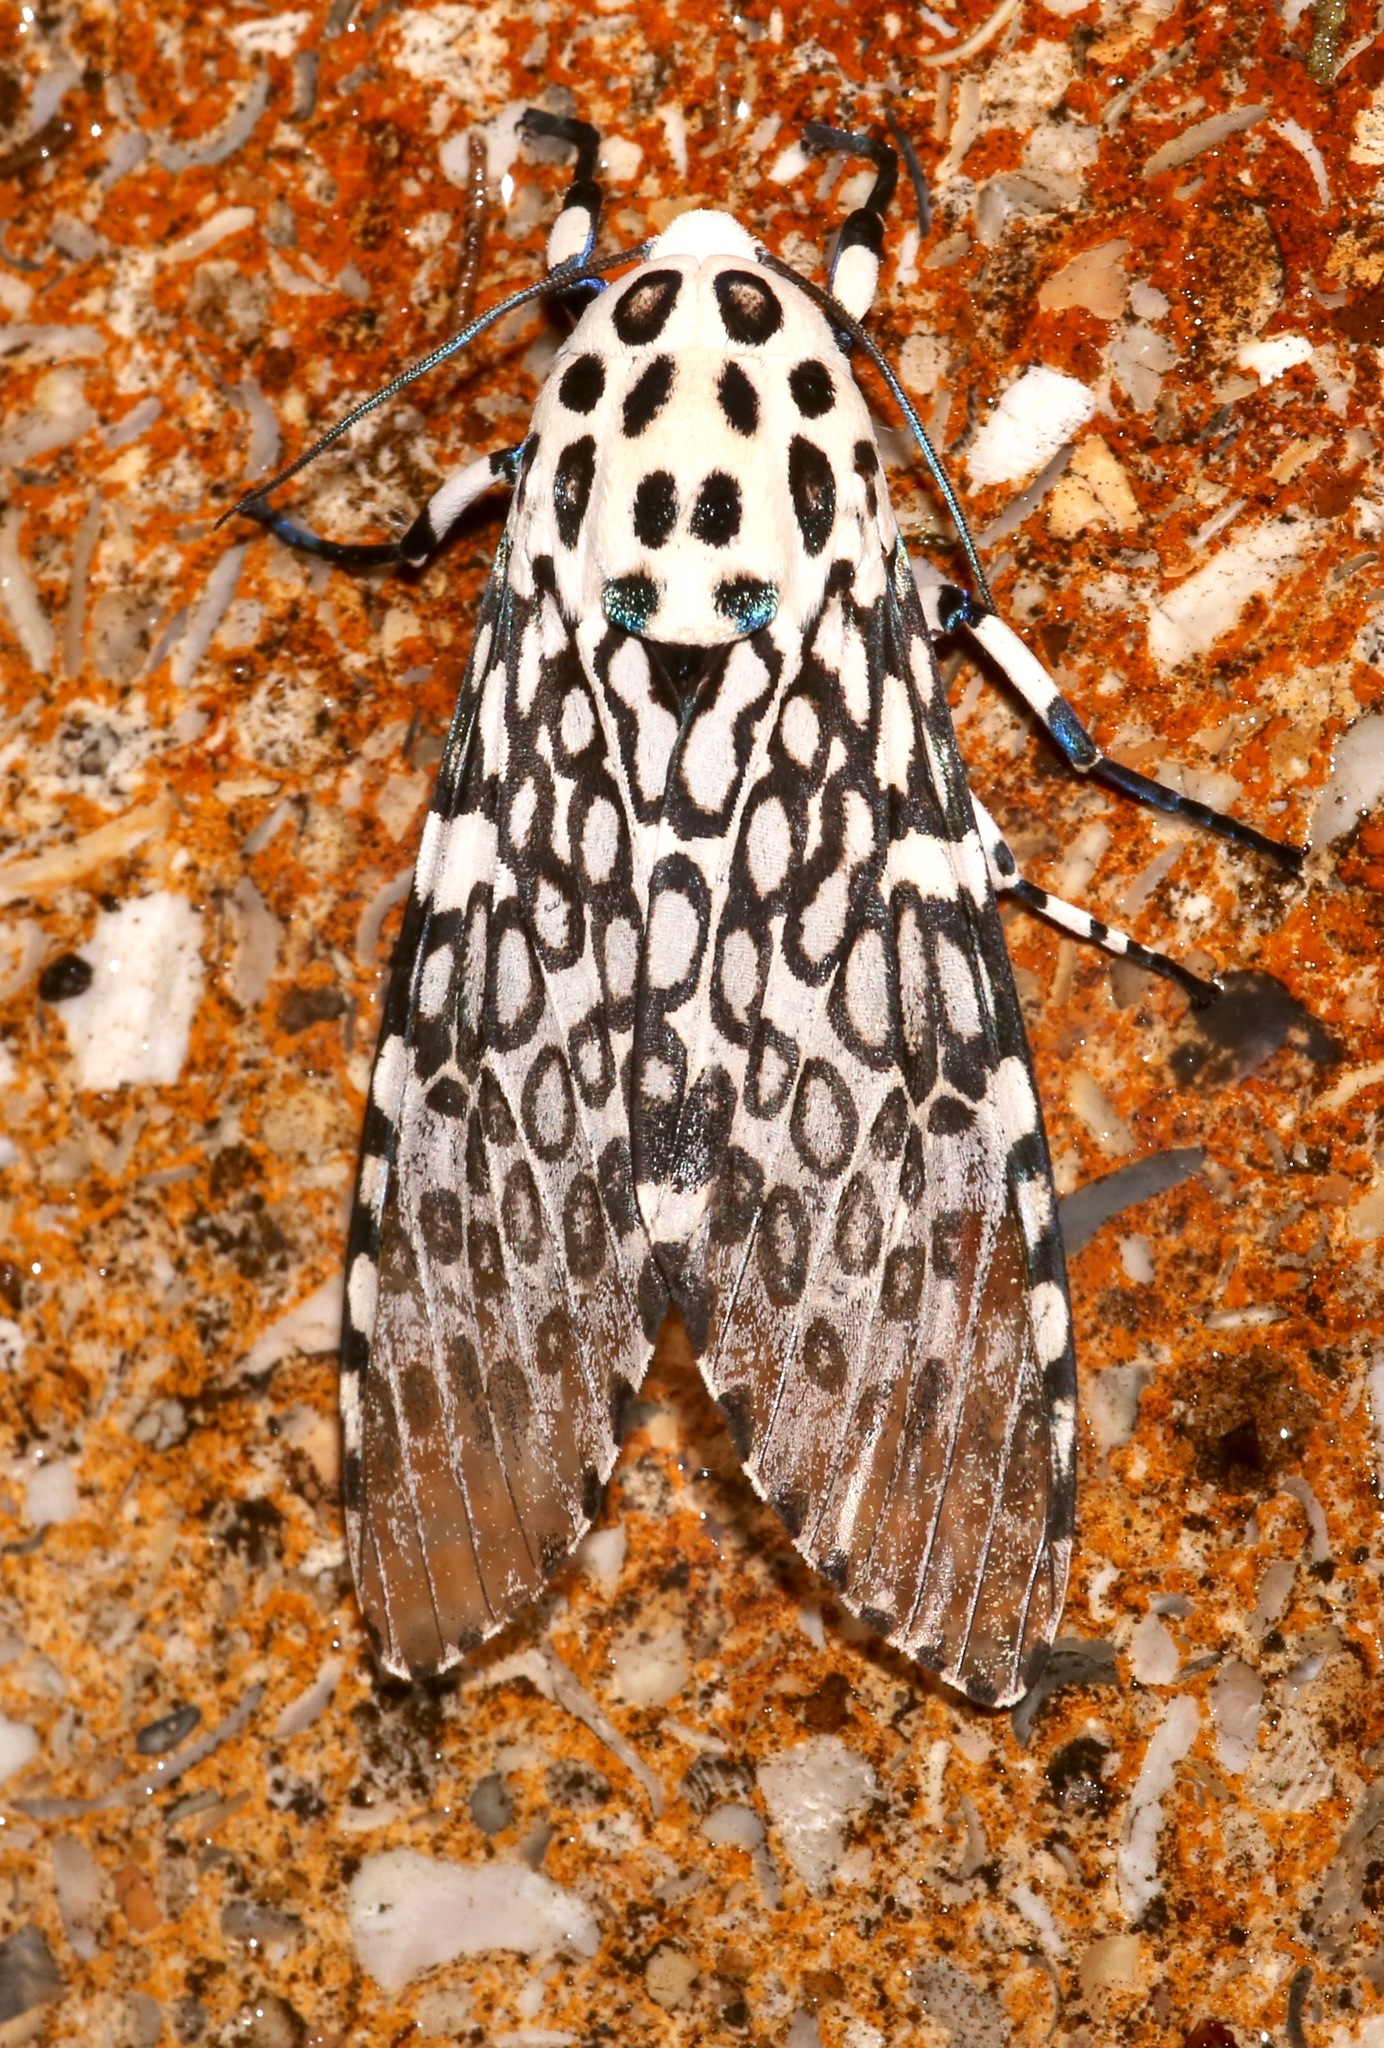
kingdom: Animalia
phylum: Arthropoda
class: Insecta
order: Lepidoptera
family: Erebidae
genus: Hypercompe
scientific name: Hypercompe scribonia
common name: Giant leopard moth
